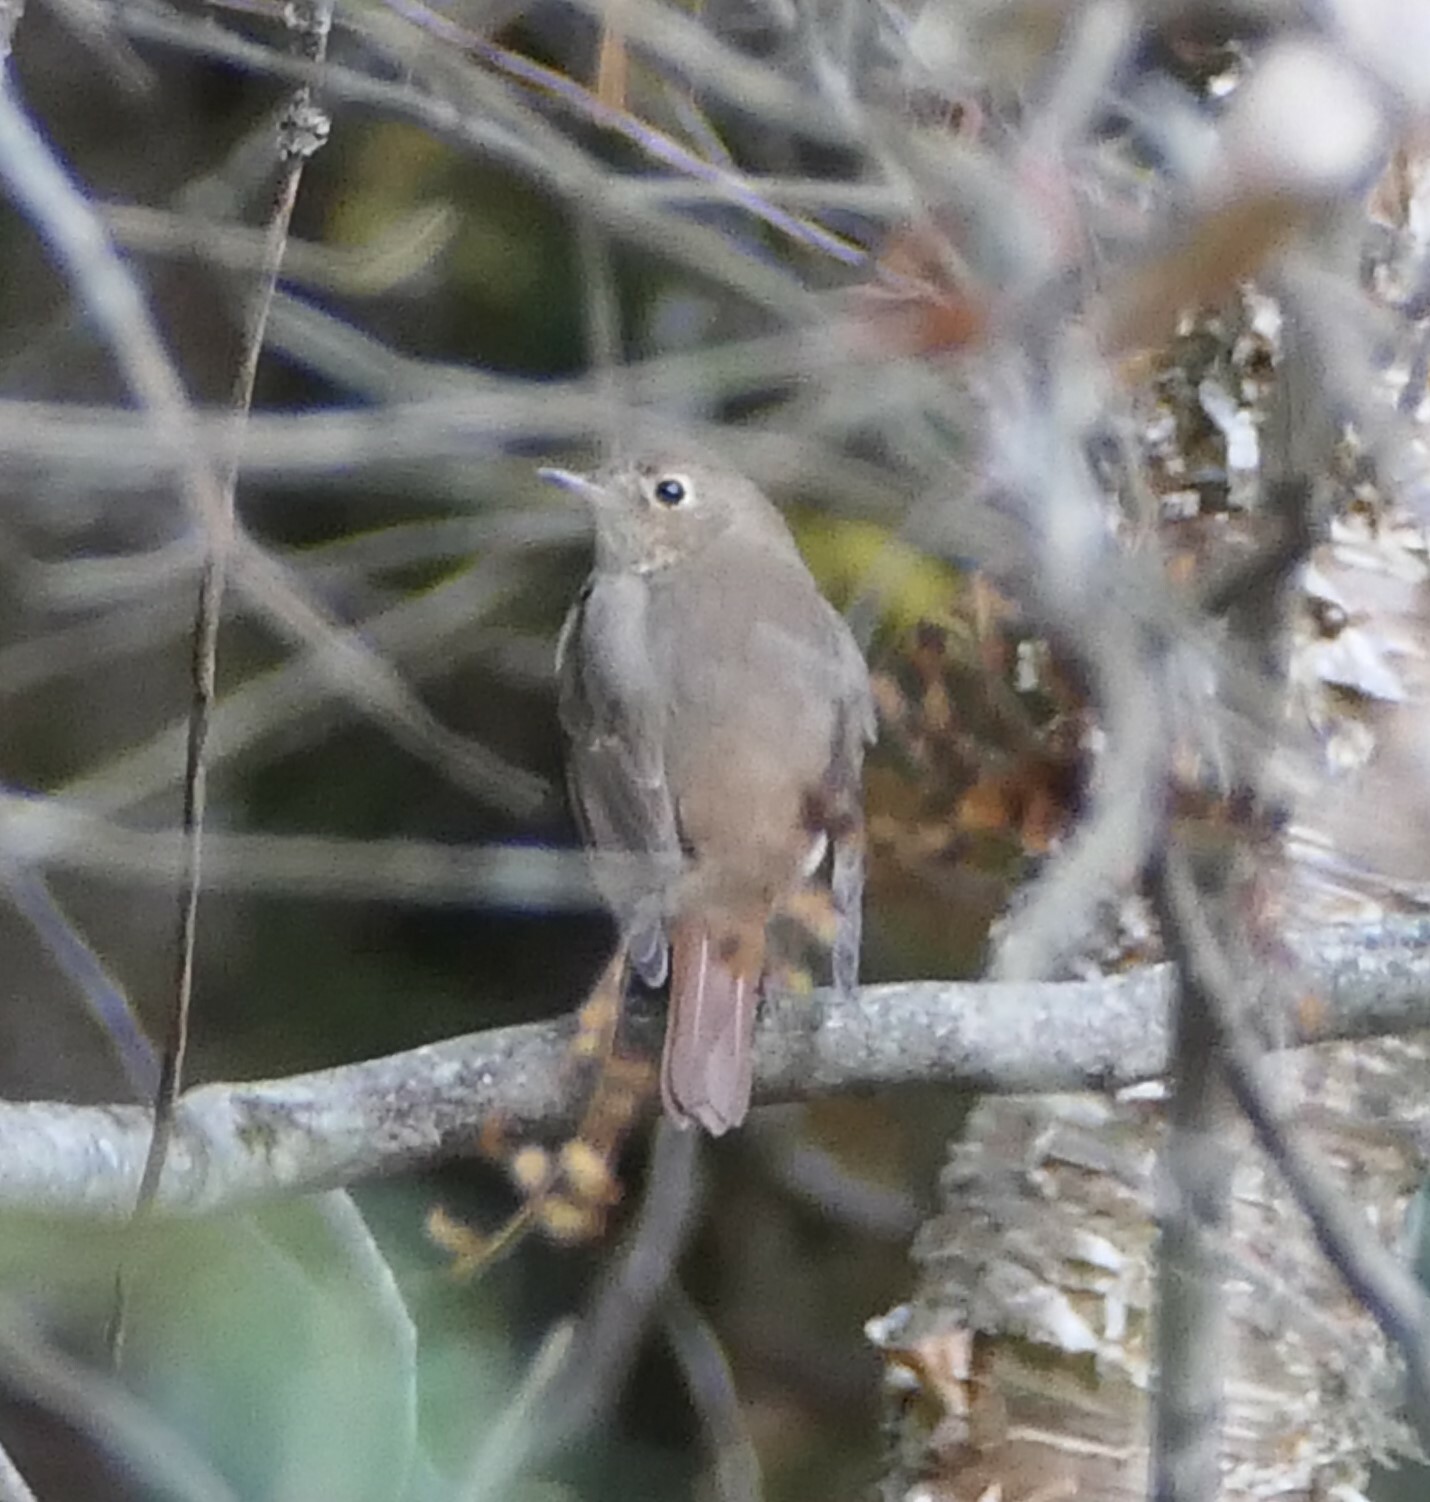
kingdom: Animalia
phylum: Chordata
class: Aves
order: Passeriformes
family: Turdidae
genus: Catharus
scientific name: Catharus guttatus
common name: Hermit thrush
